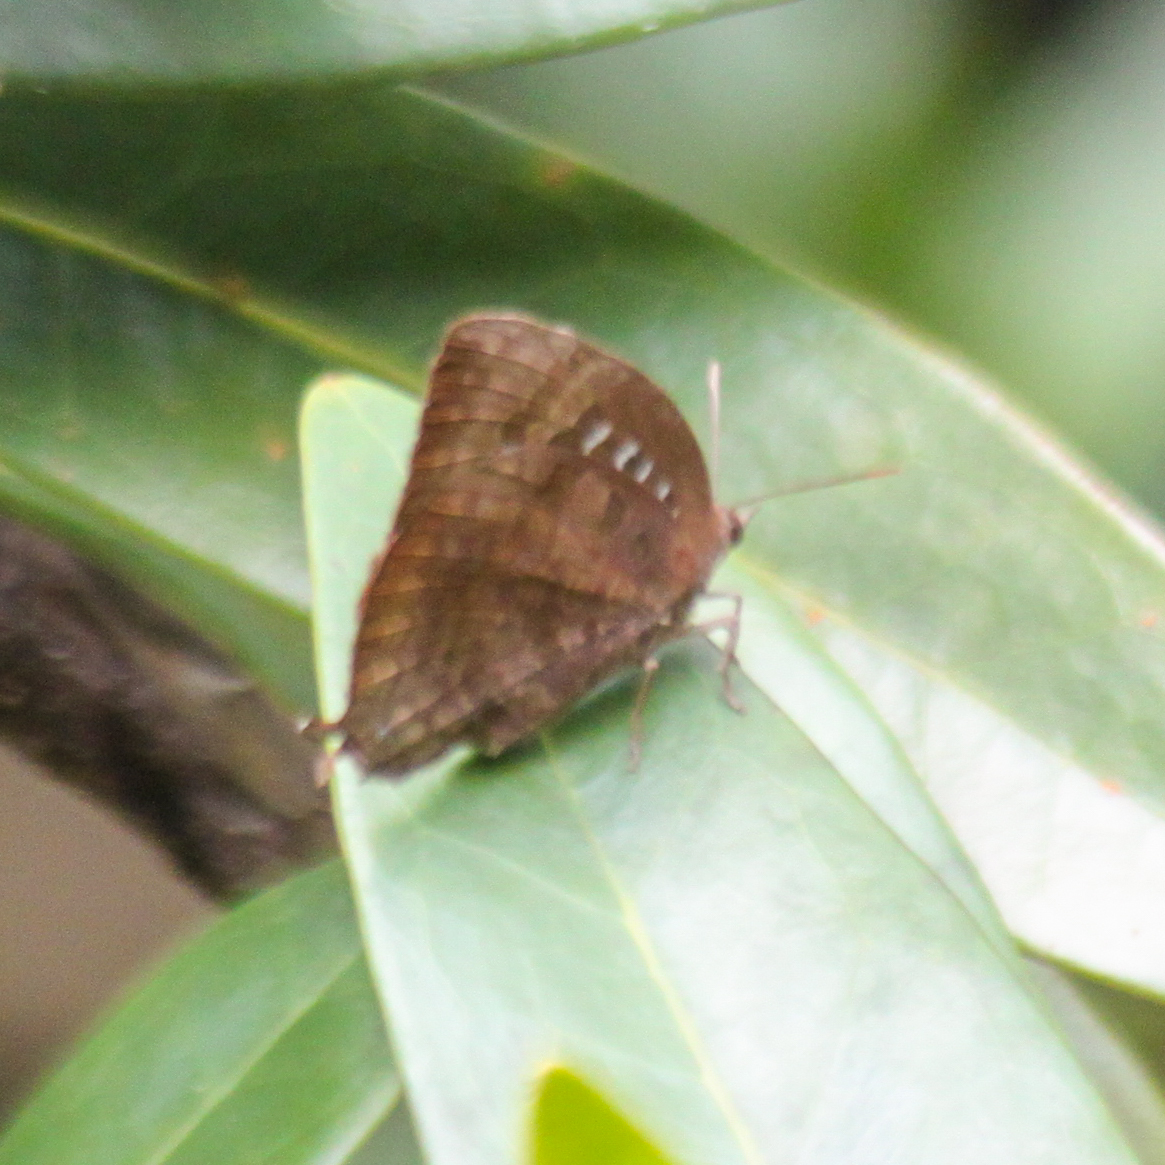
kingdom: Animalia
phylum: Arthropoda
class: Insecta
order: Lepidoptera
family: Lycaenidae
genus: Arhopala
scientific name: Arhopala centaurus
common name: Dull oak-blue
